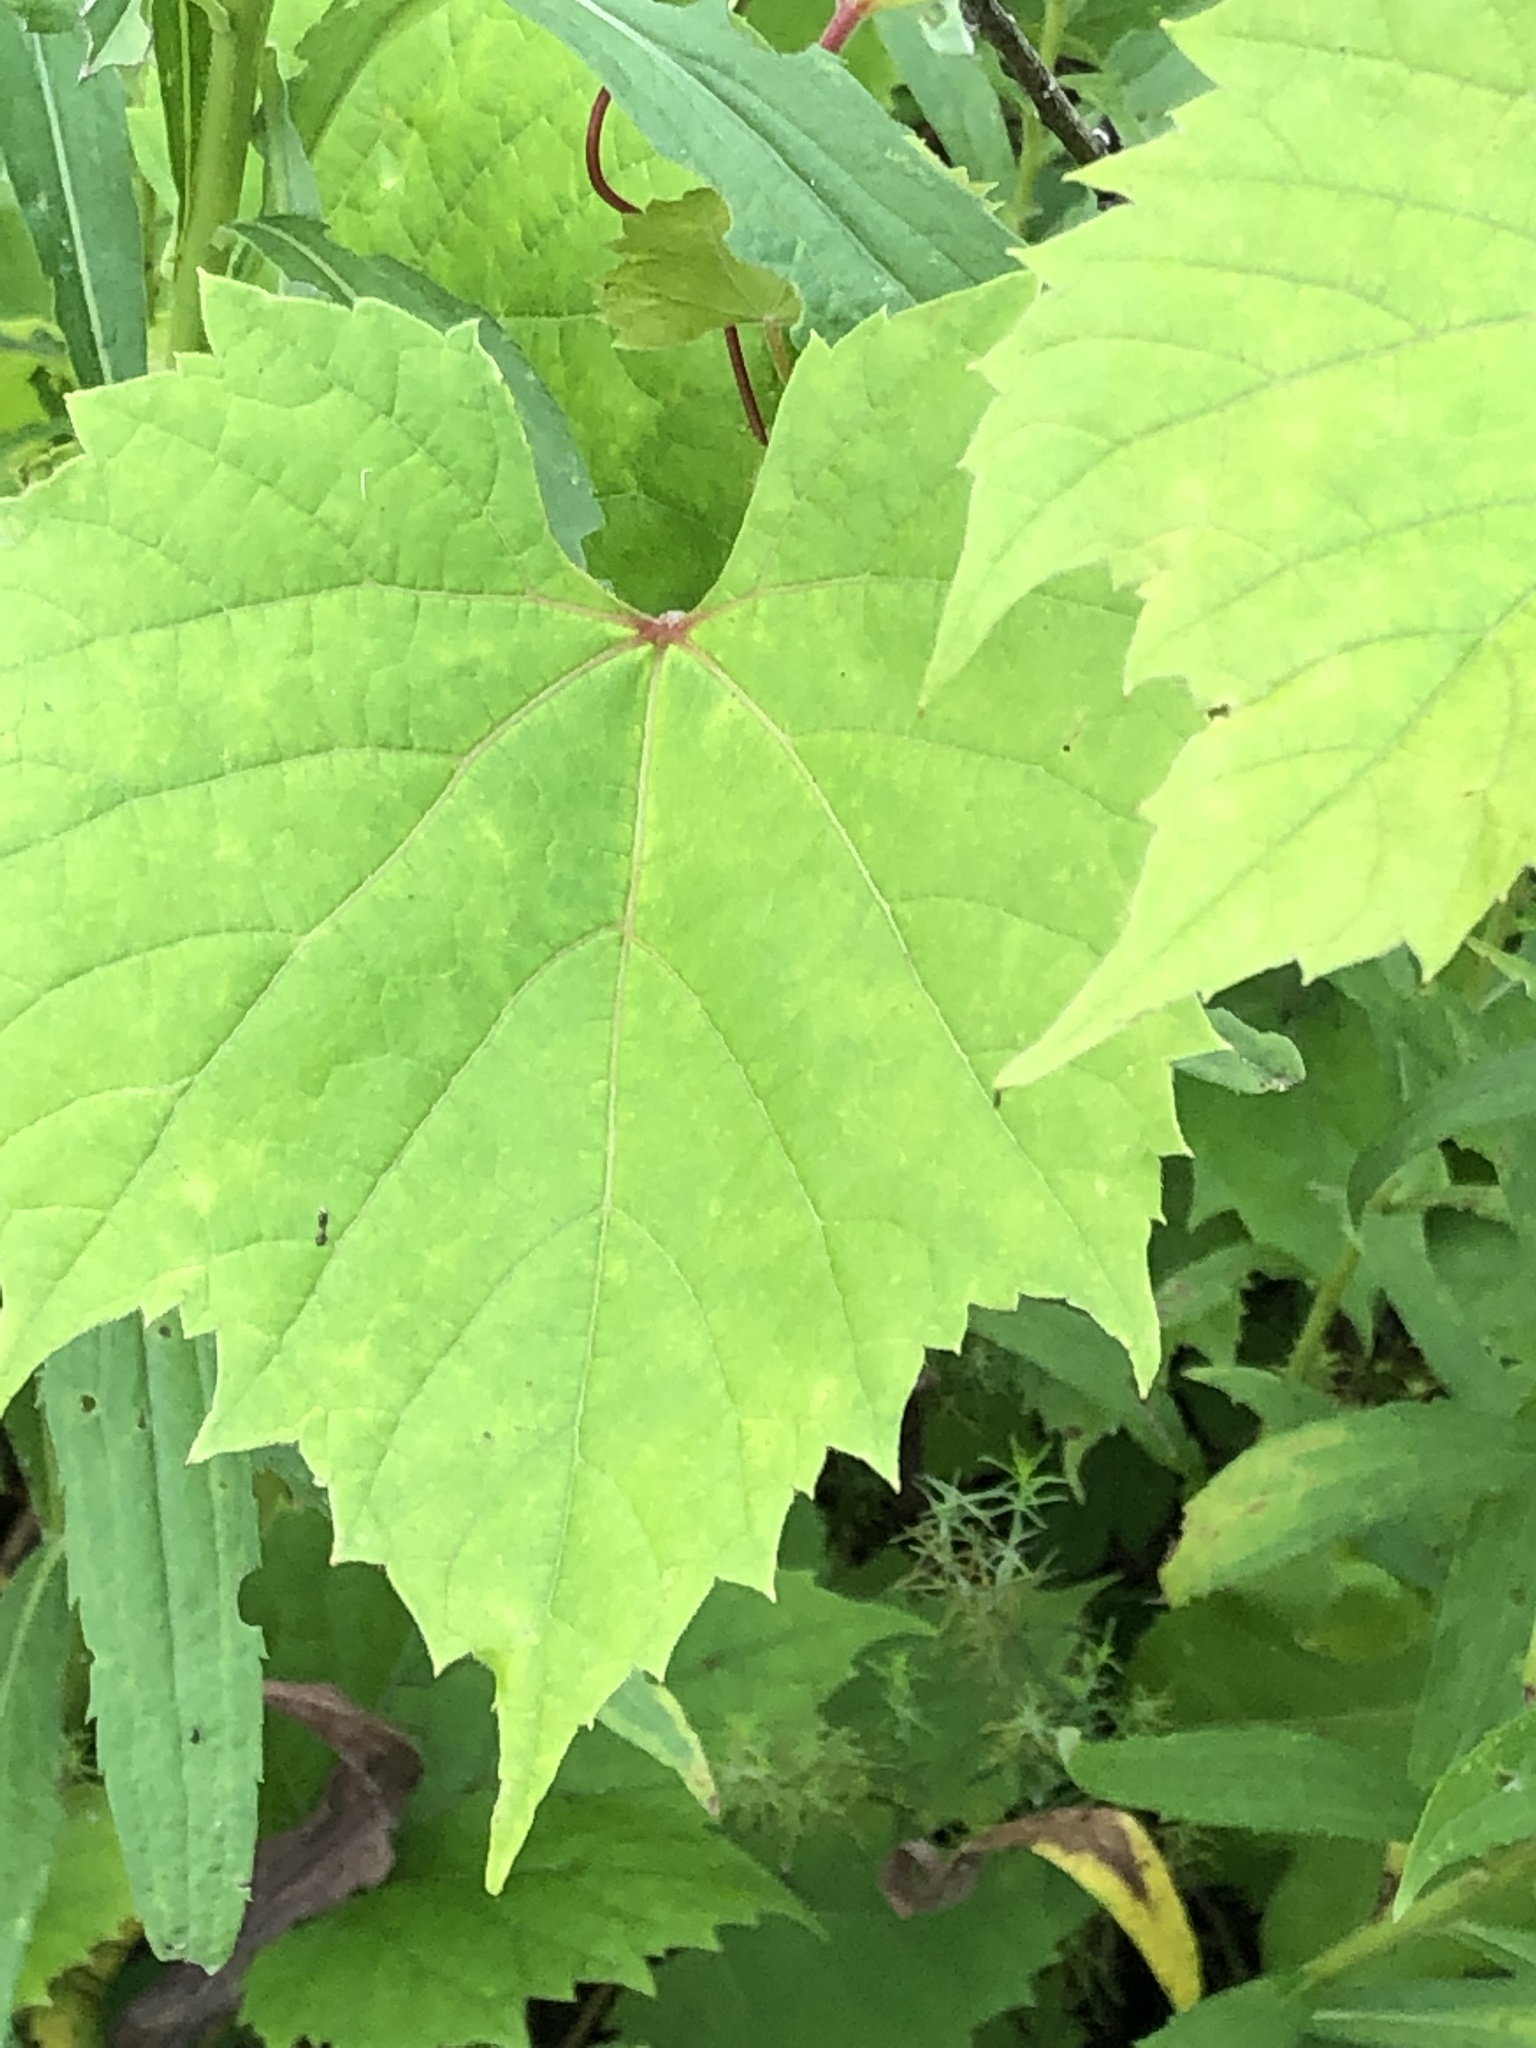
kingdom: Plantae
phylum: Tracheophyta
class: Magnoliopsida
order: Vitales
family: Vitaceae
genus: Vitis
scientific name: Vitis riparia
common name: Frost grape
